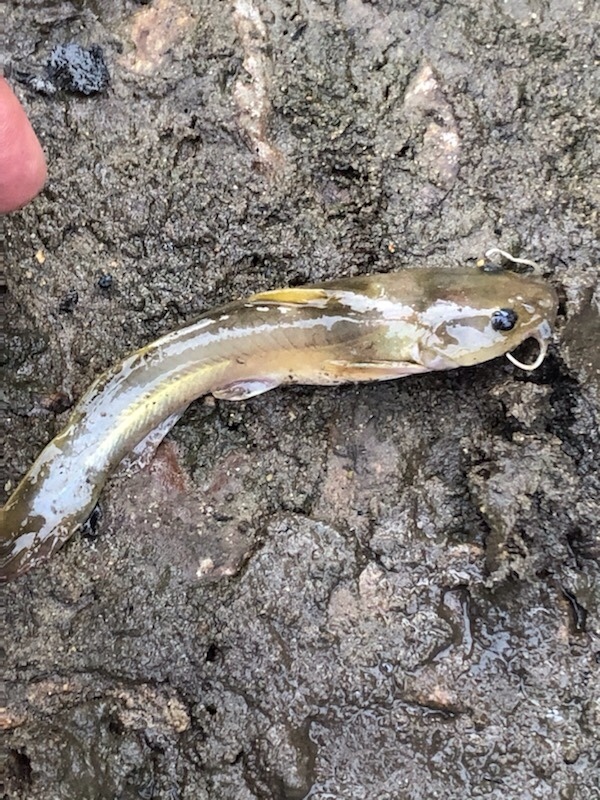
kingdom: Animalia
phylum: Chordata
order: Siluriformes
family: Ictaluridae
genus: Noturus
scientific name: Noturus flavus
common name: Stonecat
